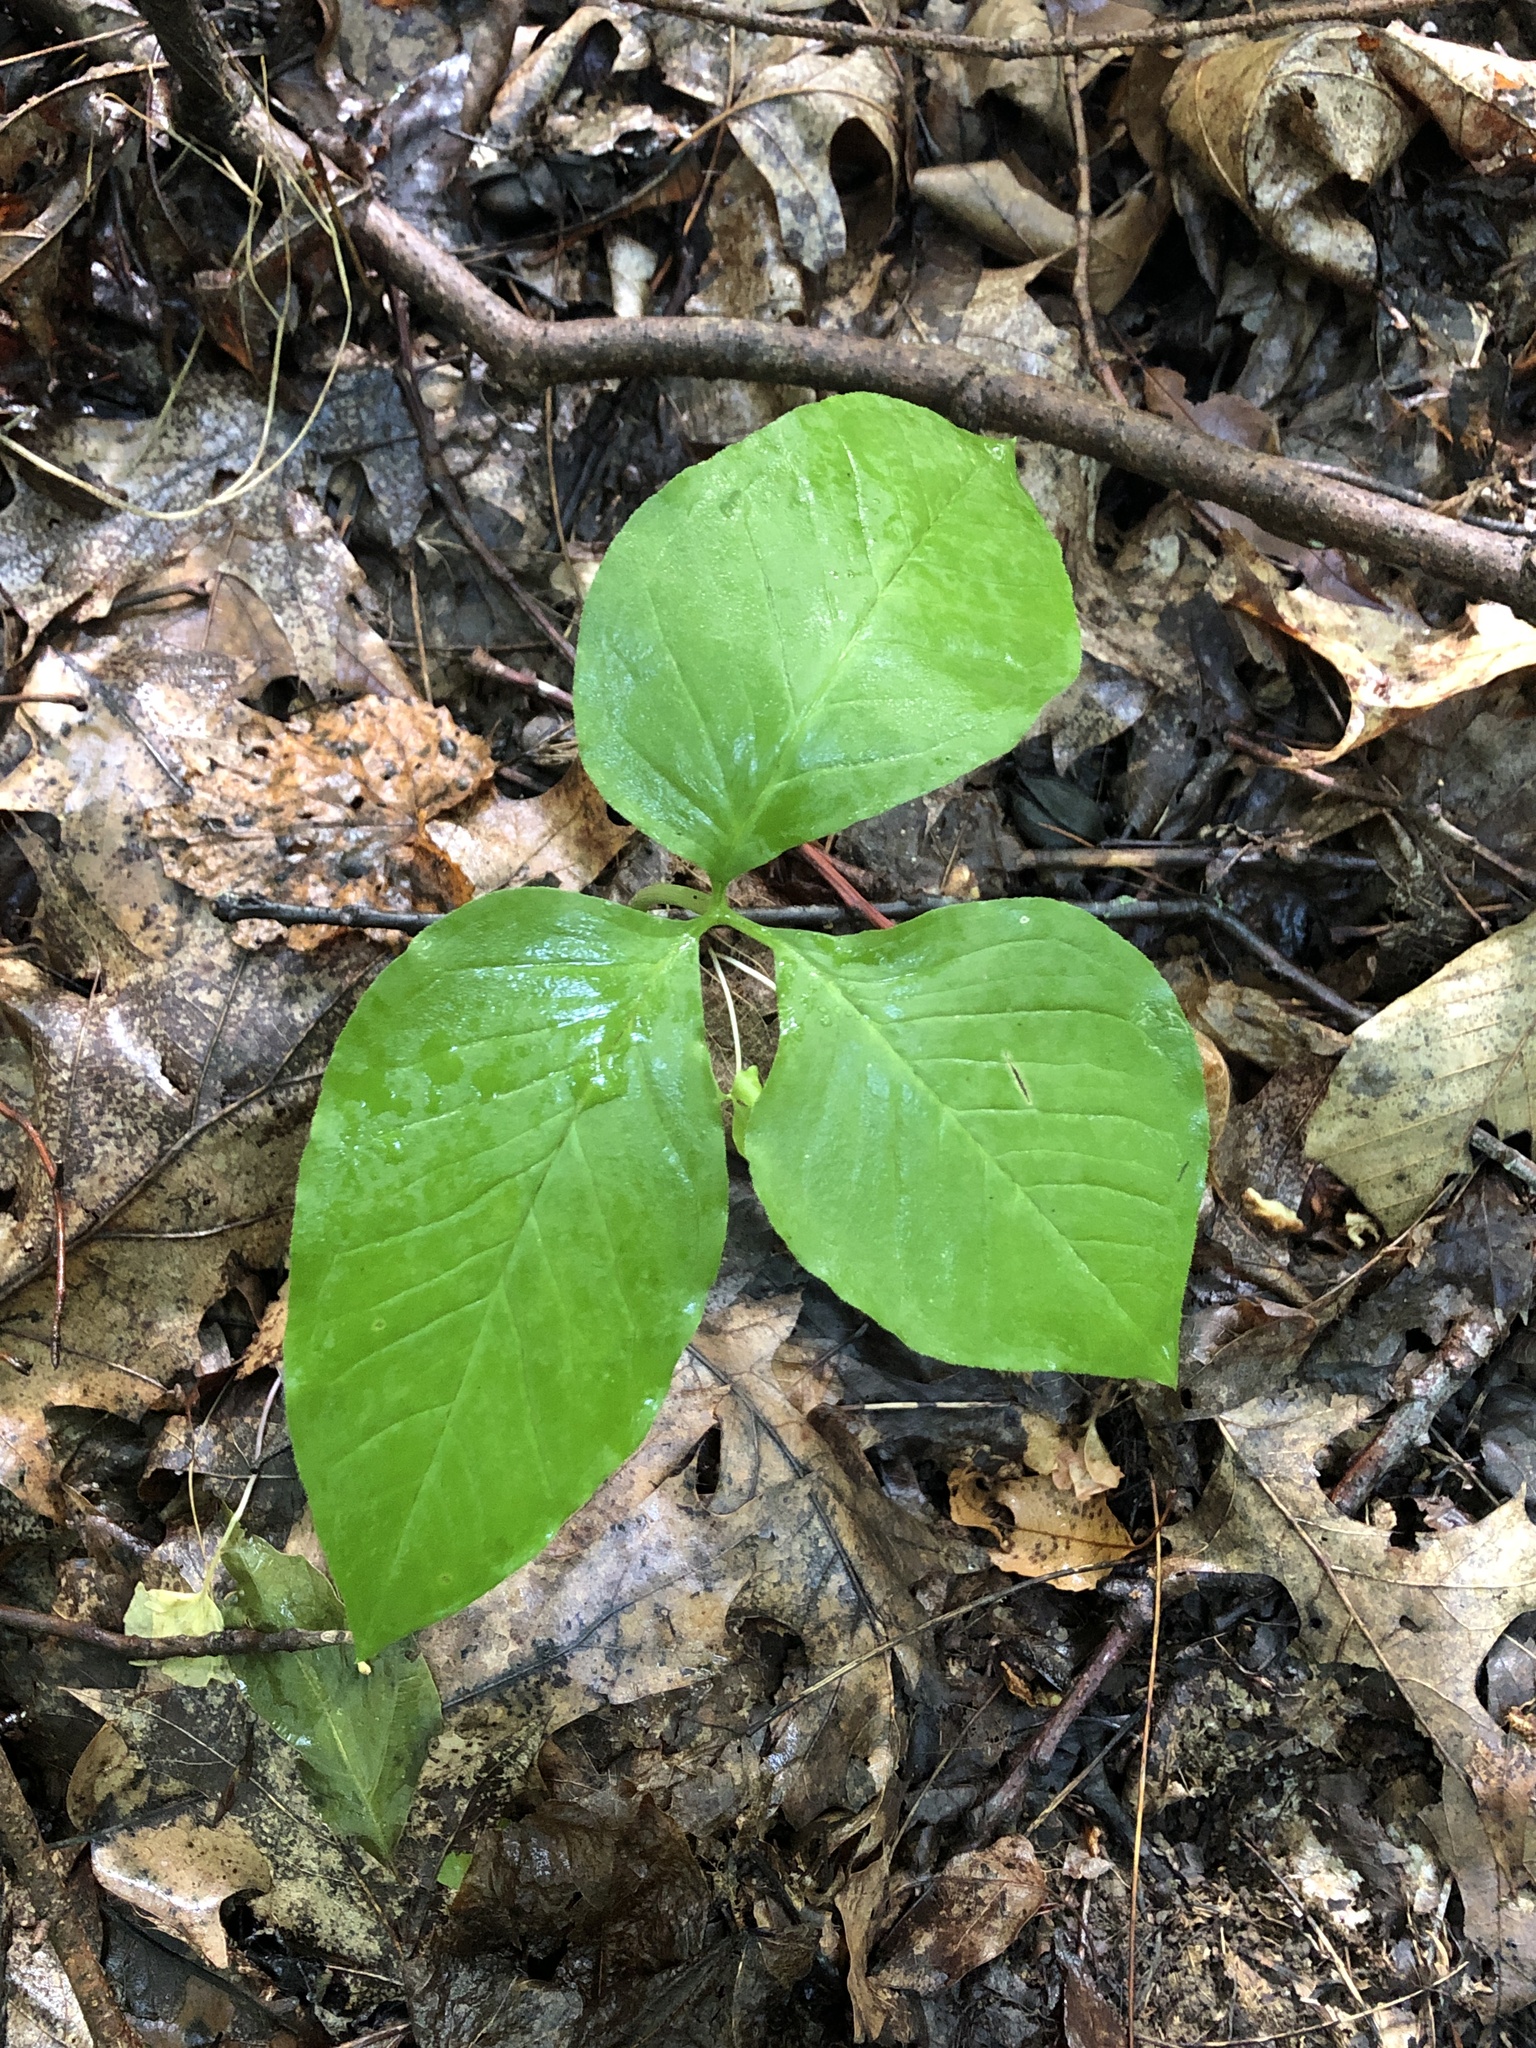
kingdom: Plantae
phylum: Tracheophyta
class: Liliopsida
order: Alismatales
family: Araceae
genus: Arisaema
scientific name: Arisaema triphyllum
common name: Jack-in-the-pulpit
